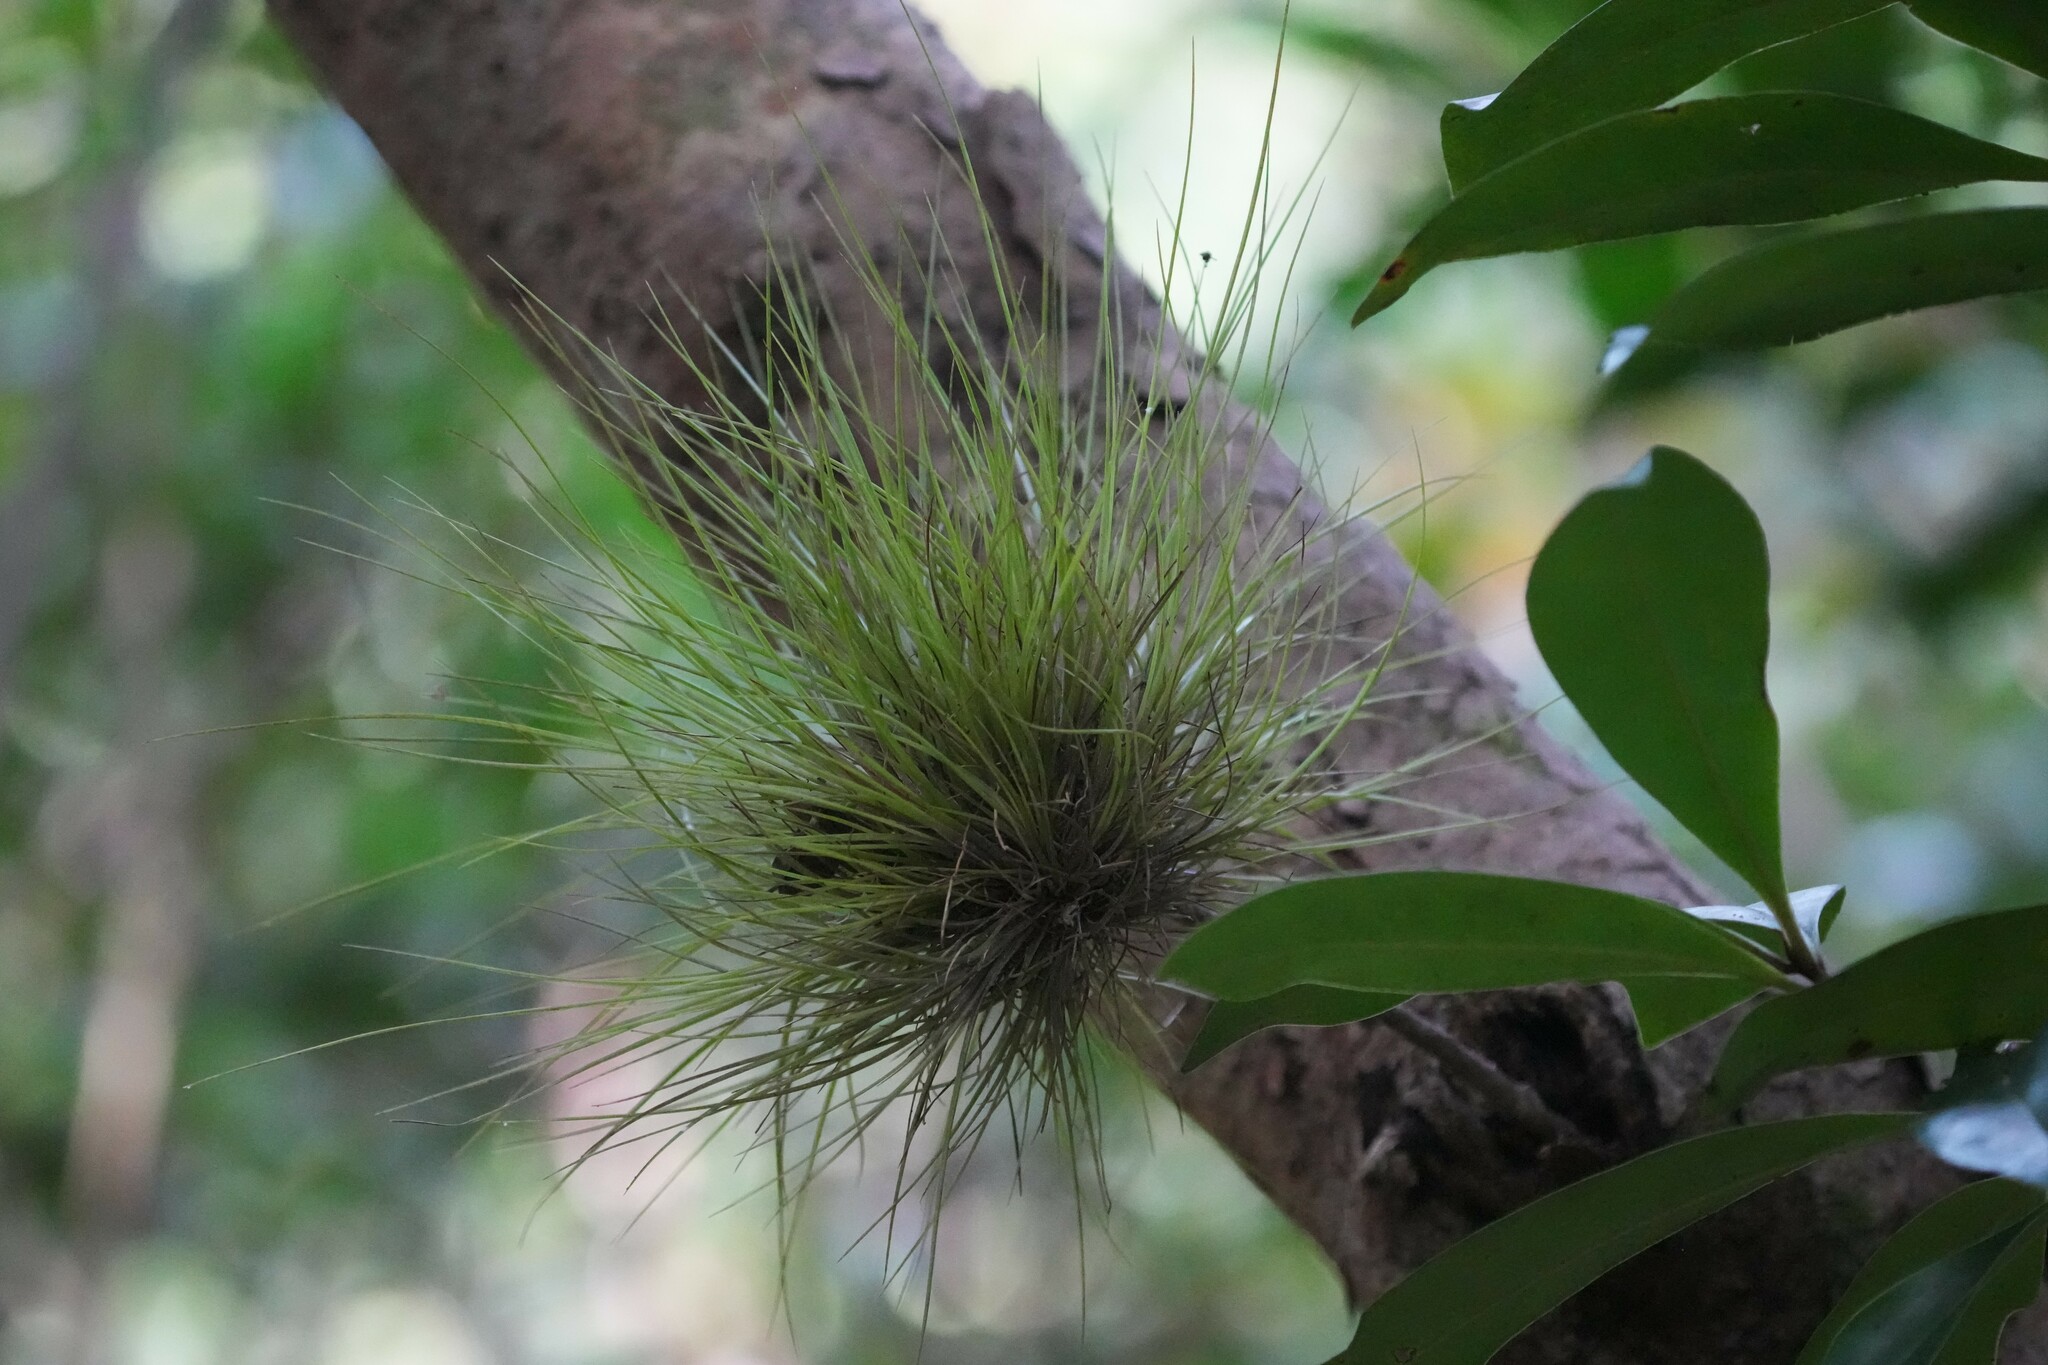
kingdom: Plantae
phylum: Tracheophyta
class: Liliopsida
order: Poales
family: Bromeliaceae
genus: Tillandsia
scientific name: Tillandsia setacea
